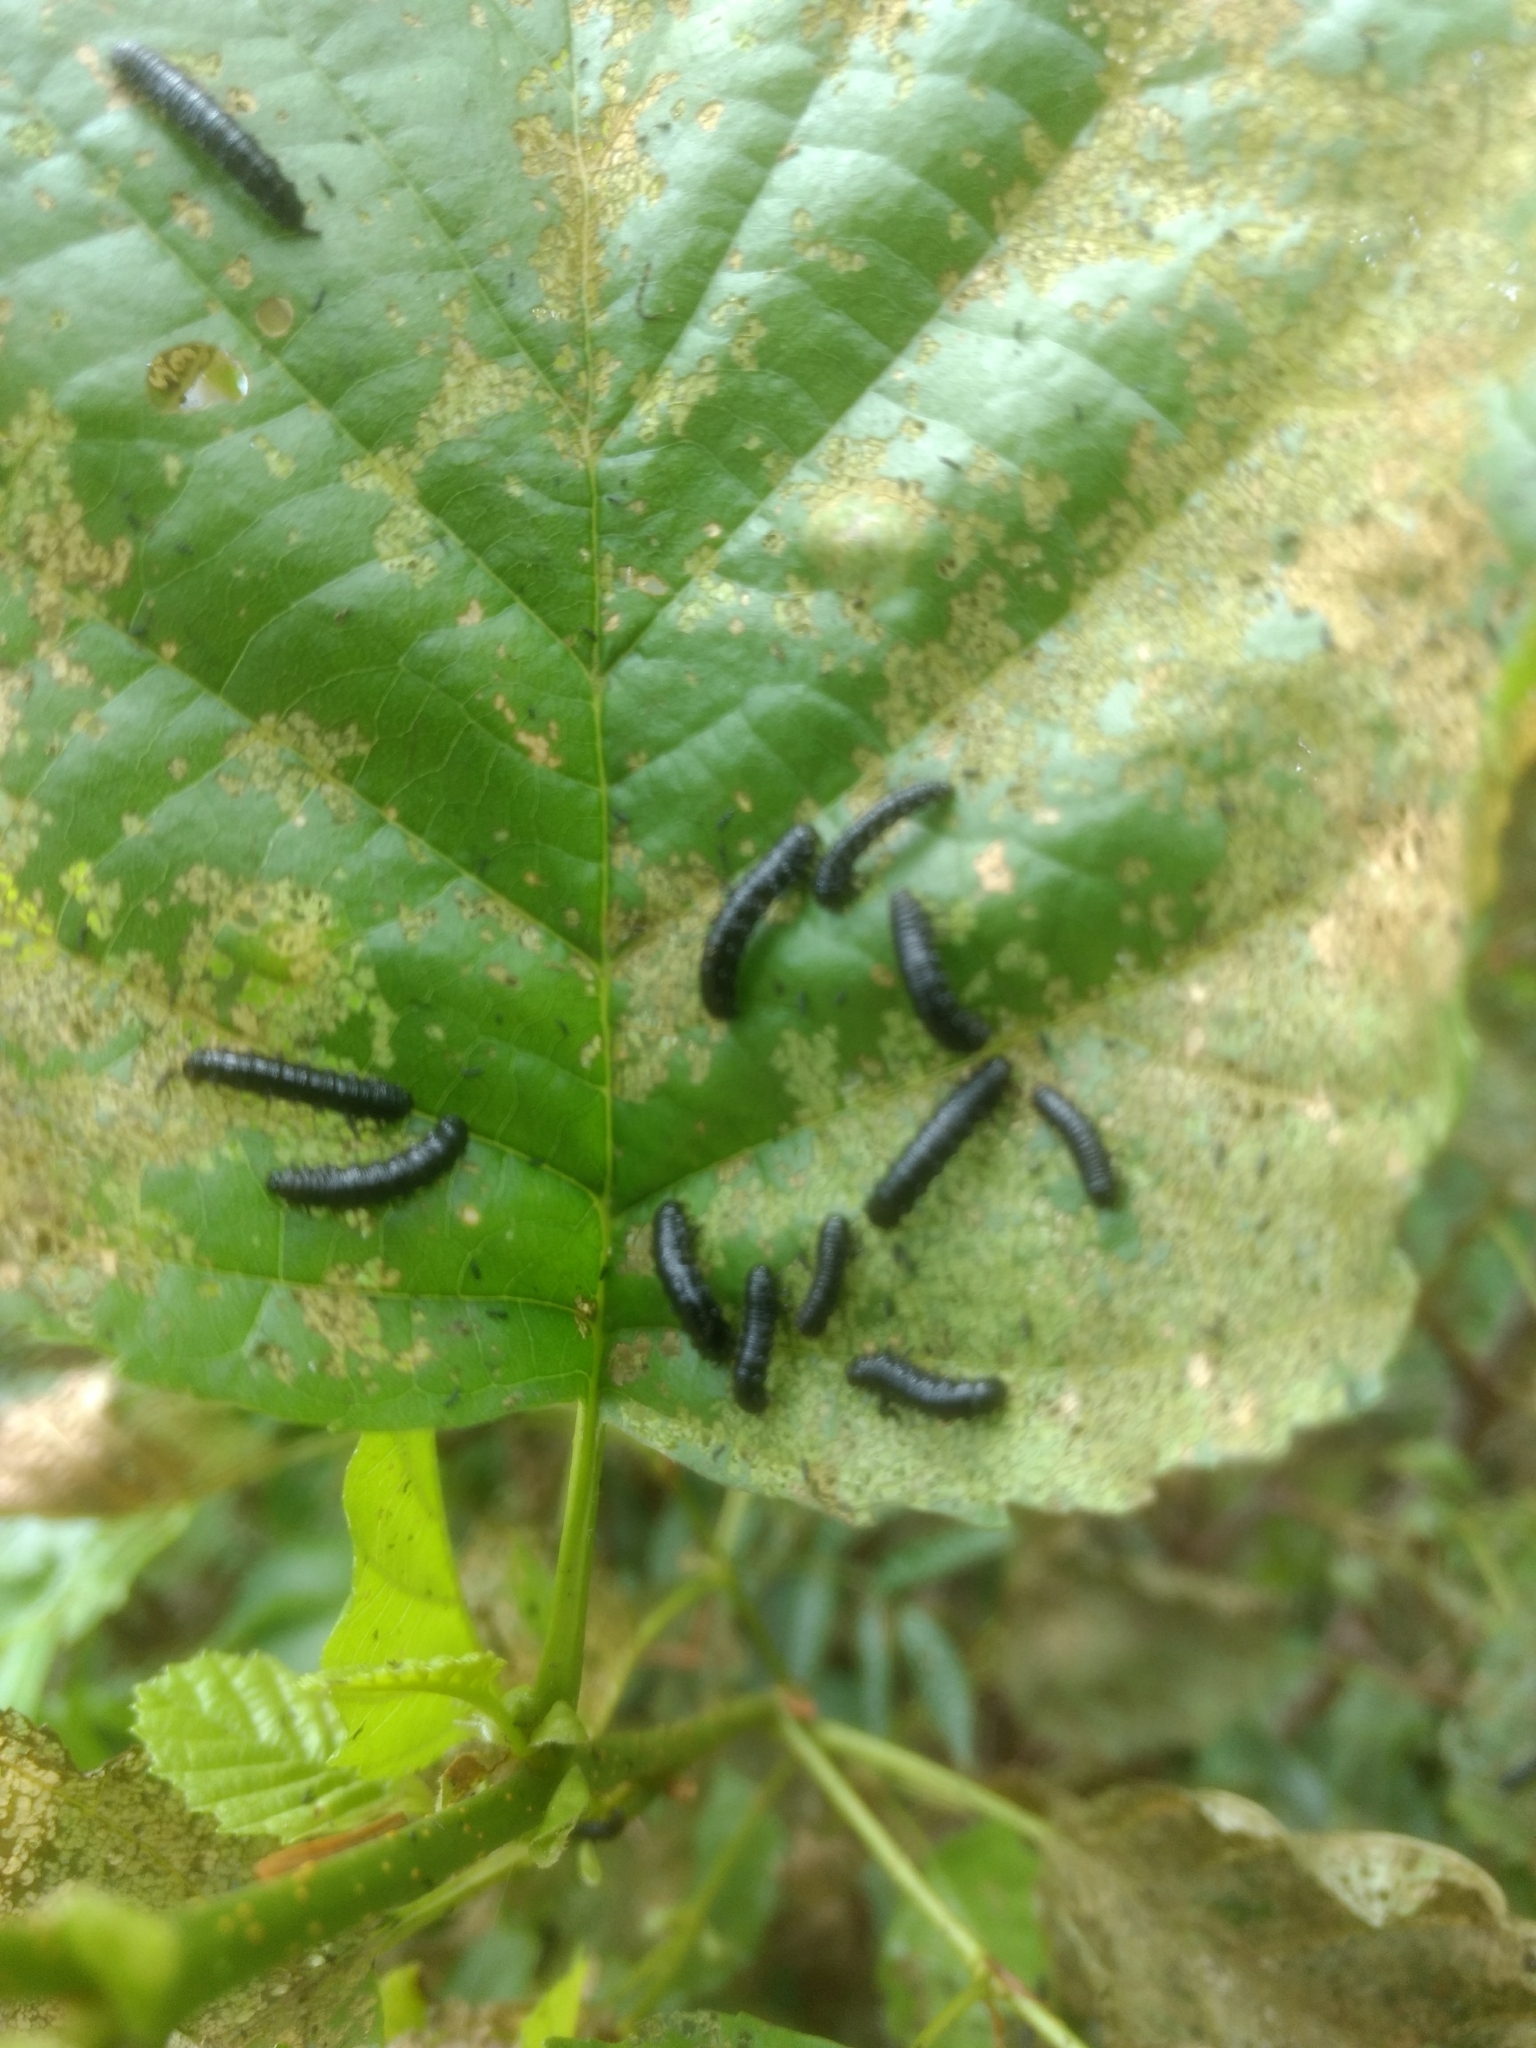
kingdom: Animalia
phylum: Arthropoda
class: Insecta
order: Coleoptera
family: Chrysomelidae
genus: Agelastica
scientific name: Agelastica alni
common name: Alder leaf beetle
